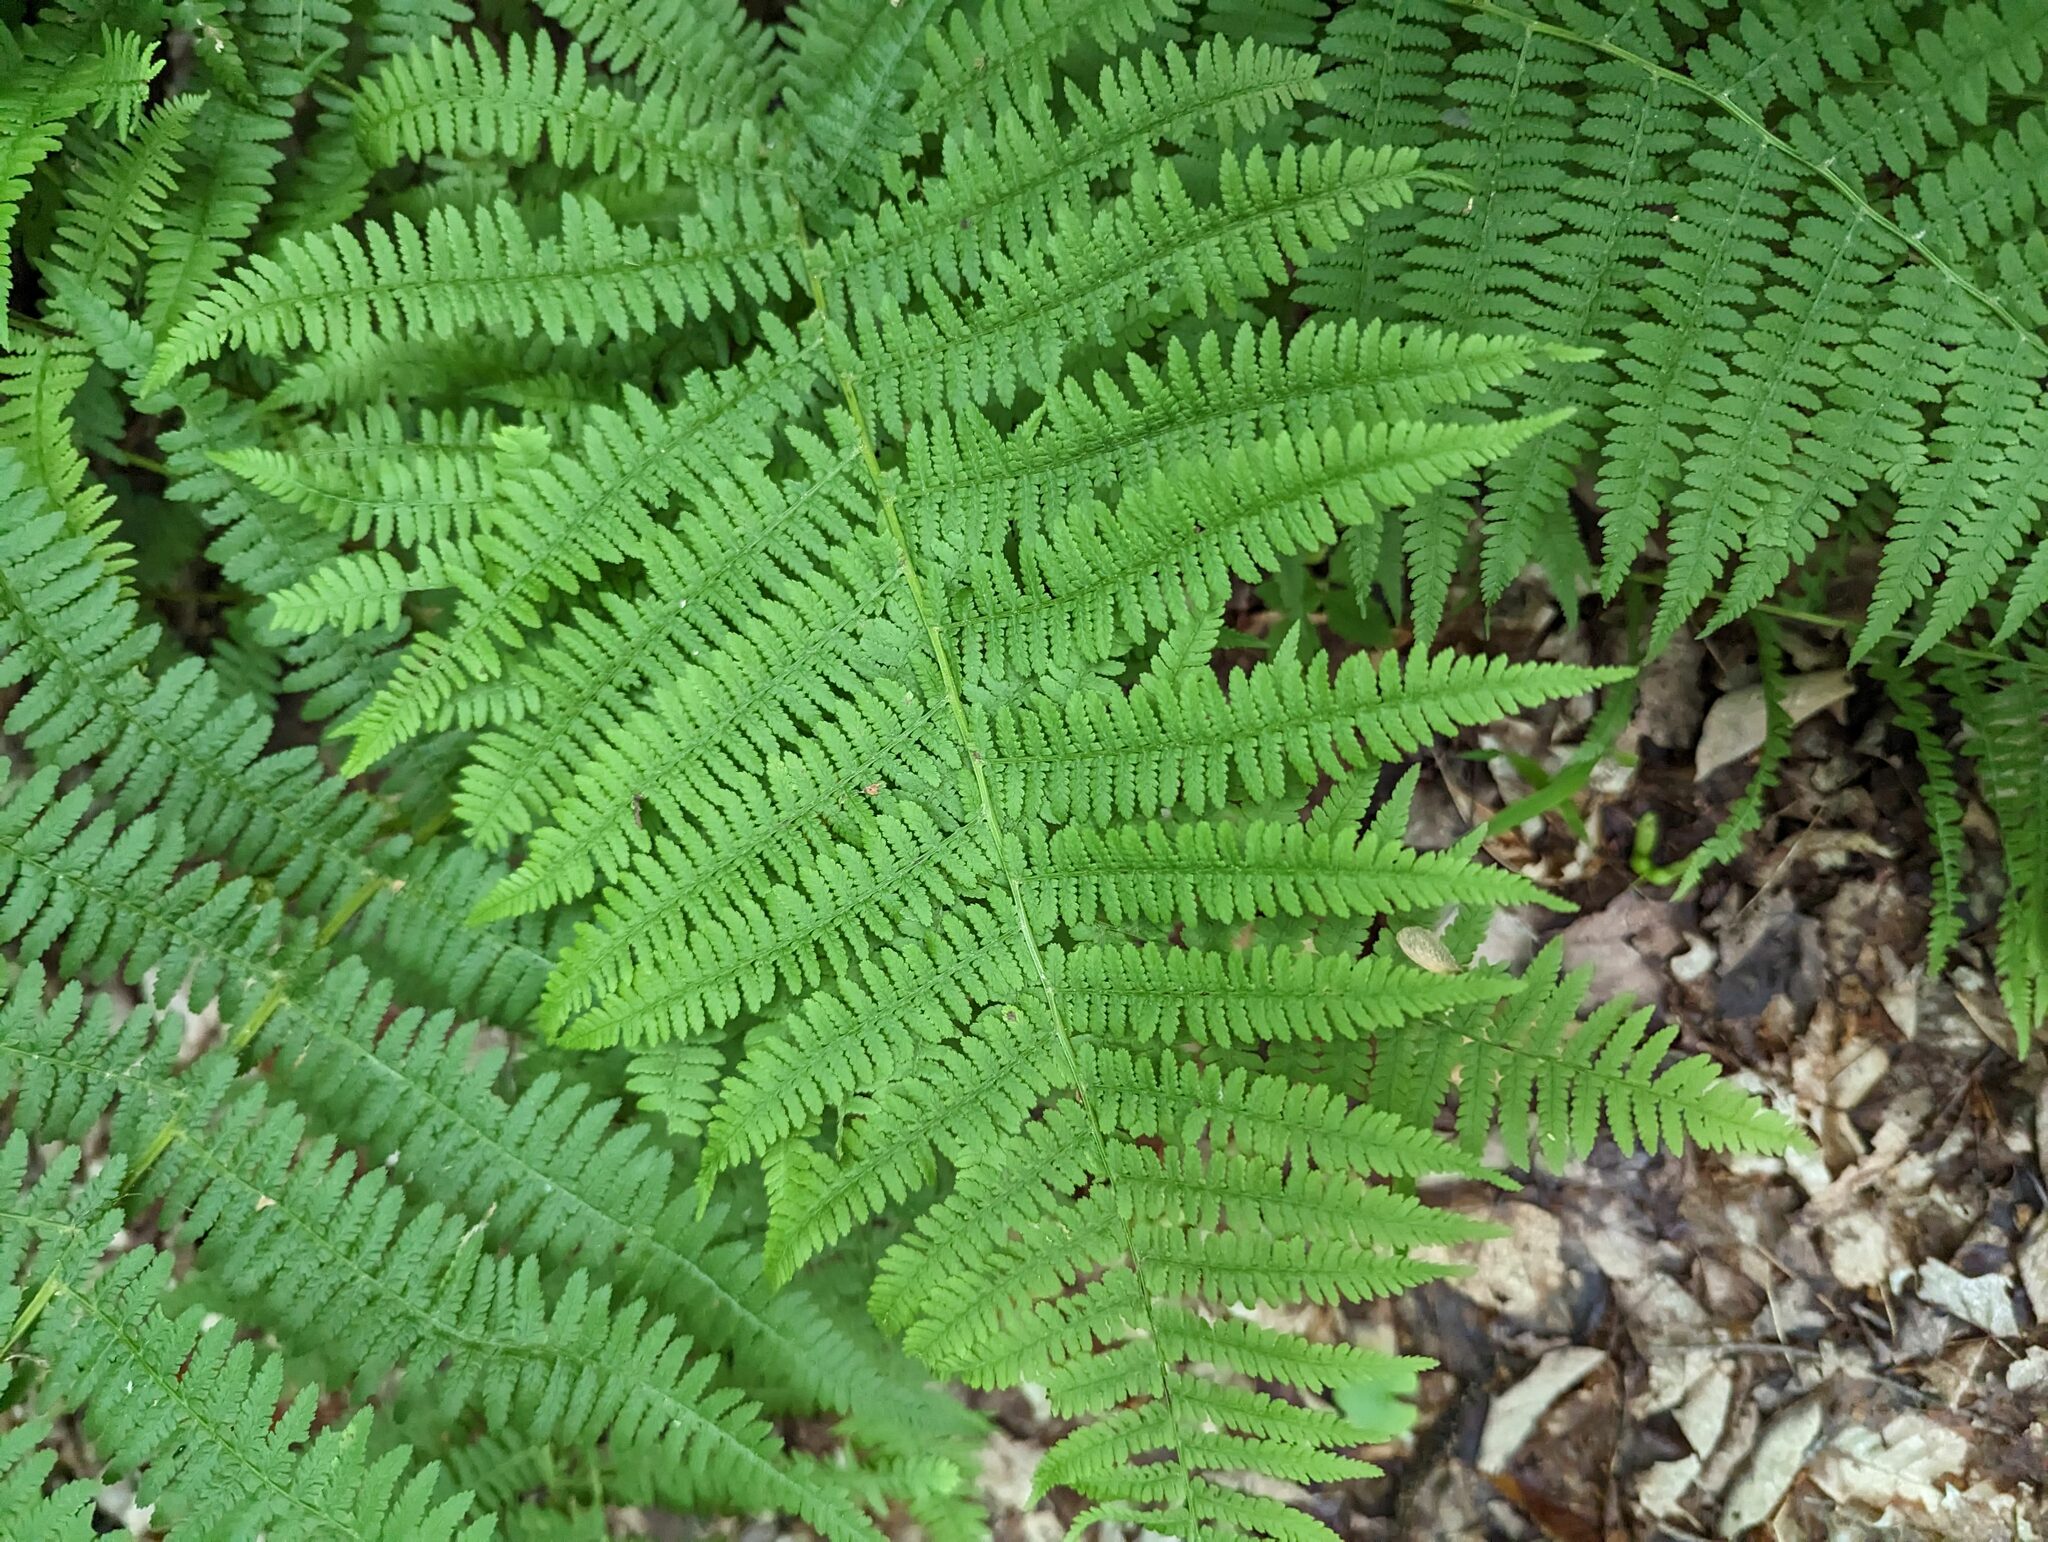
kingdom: Plantae
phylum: Tracheophyta
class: Polypodiopsida
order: Polypodiales
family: Athyriaceae
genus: Athyrium
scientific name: Athyrium angustum
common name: Northern lady fern
